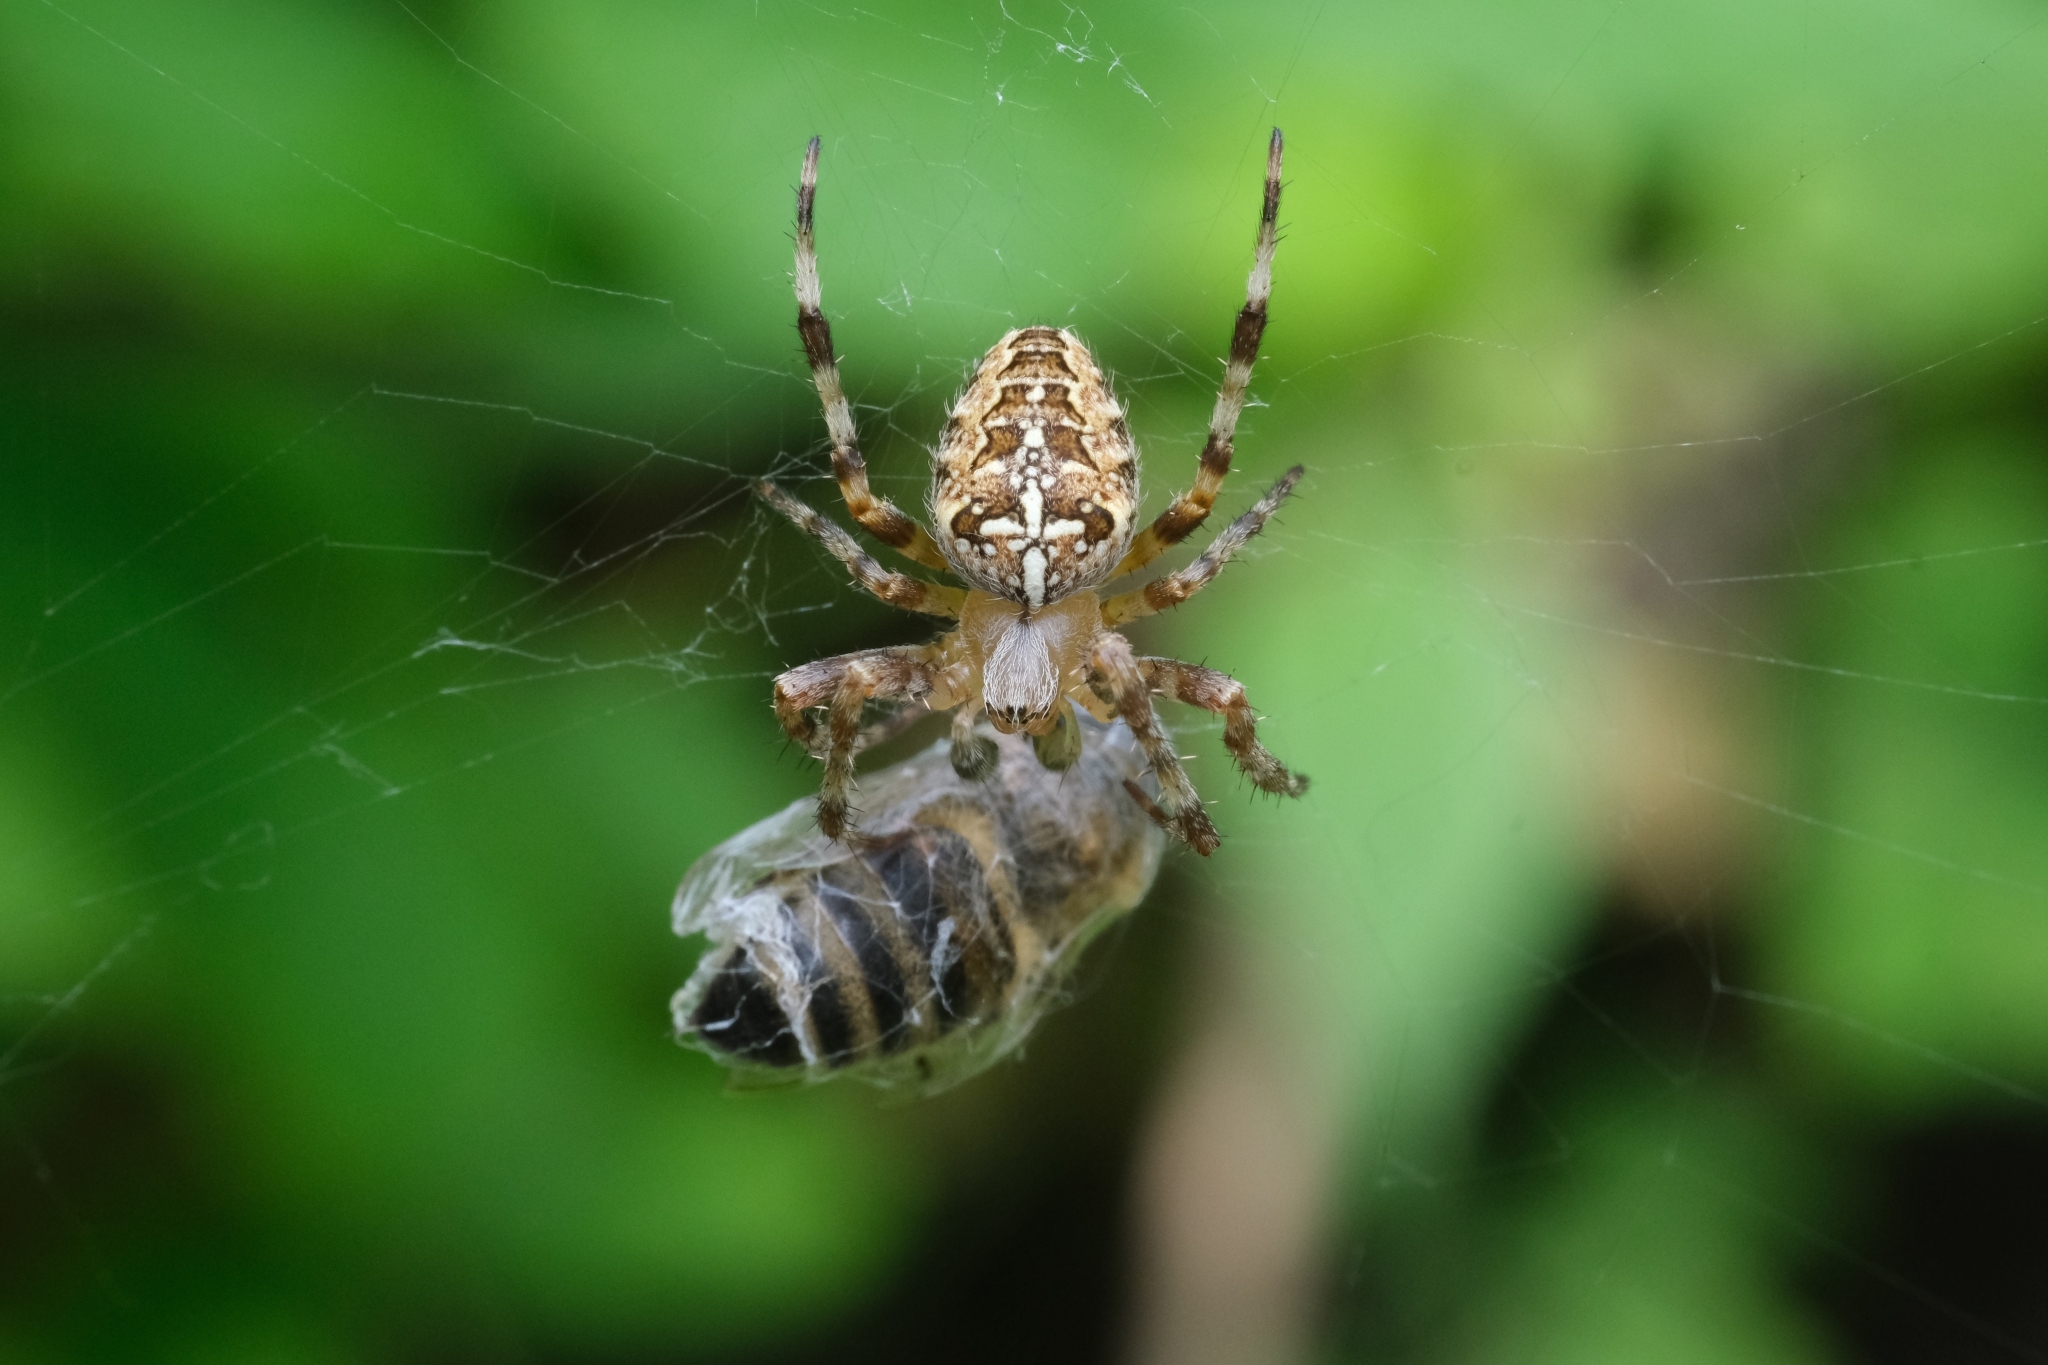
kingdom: Animalia
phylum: Arthropoda
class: Arachnida
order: Araneae
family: Araneidae
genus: Araneus
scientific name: Araneus diadematus
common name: Cross orbweaver
